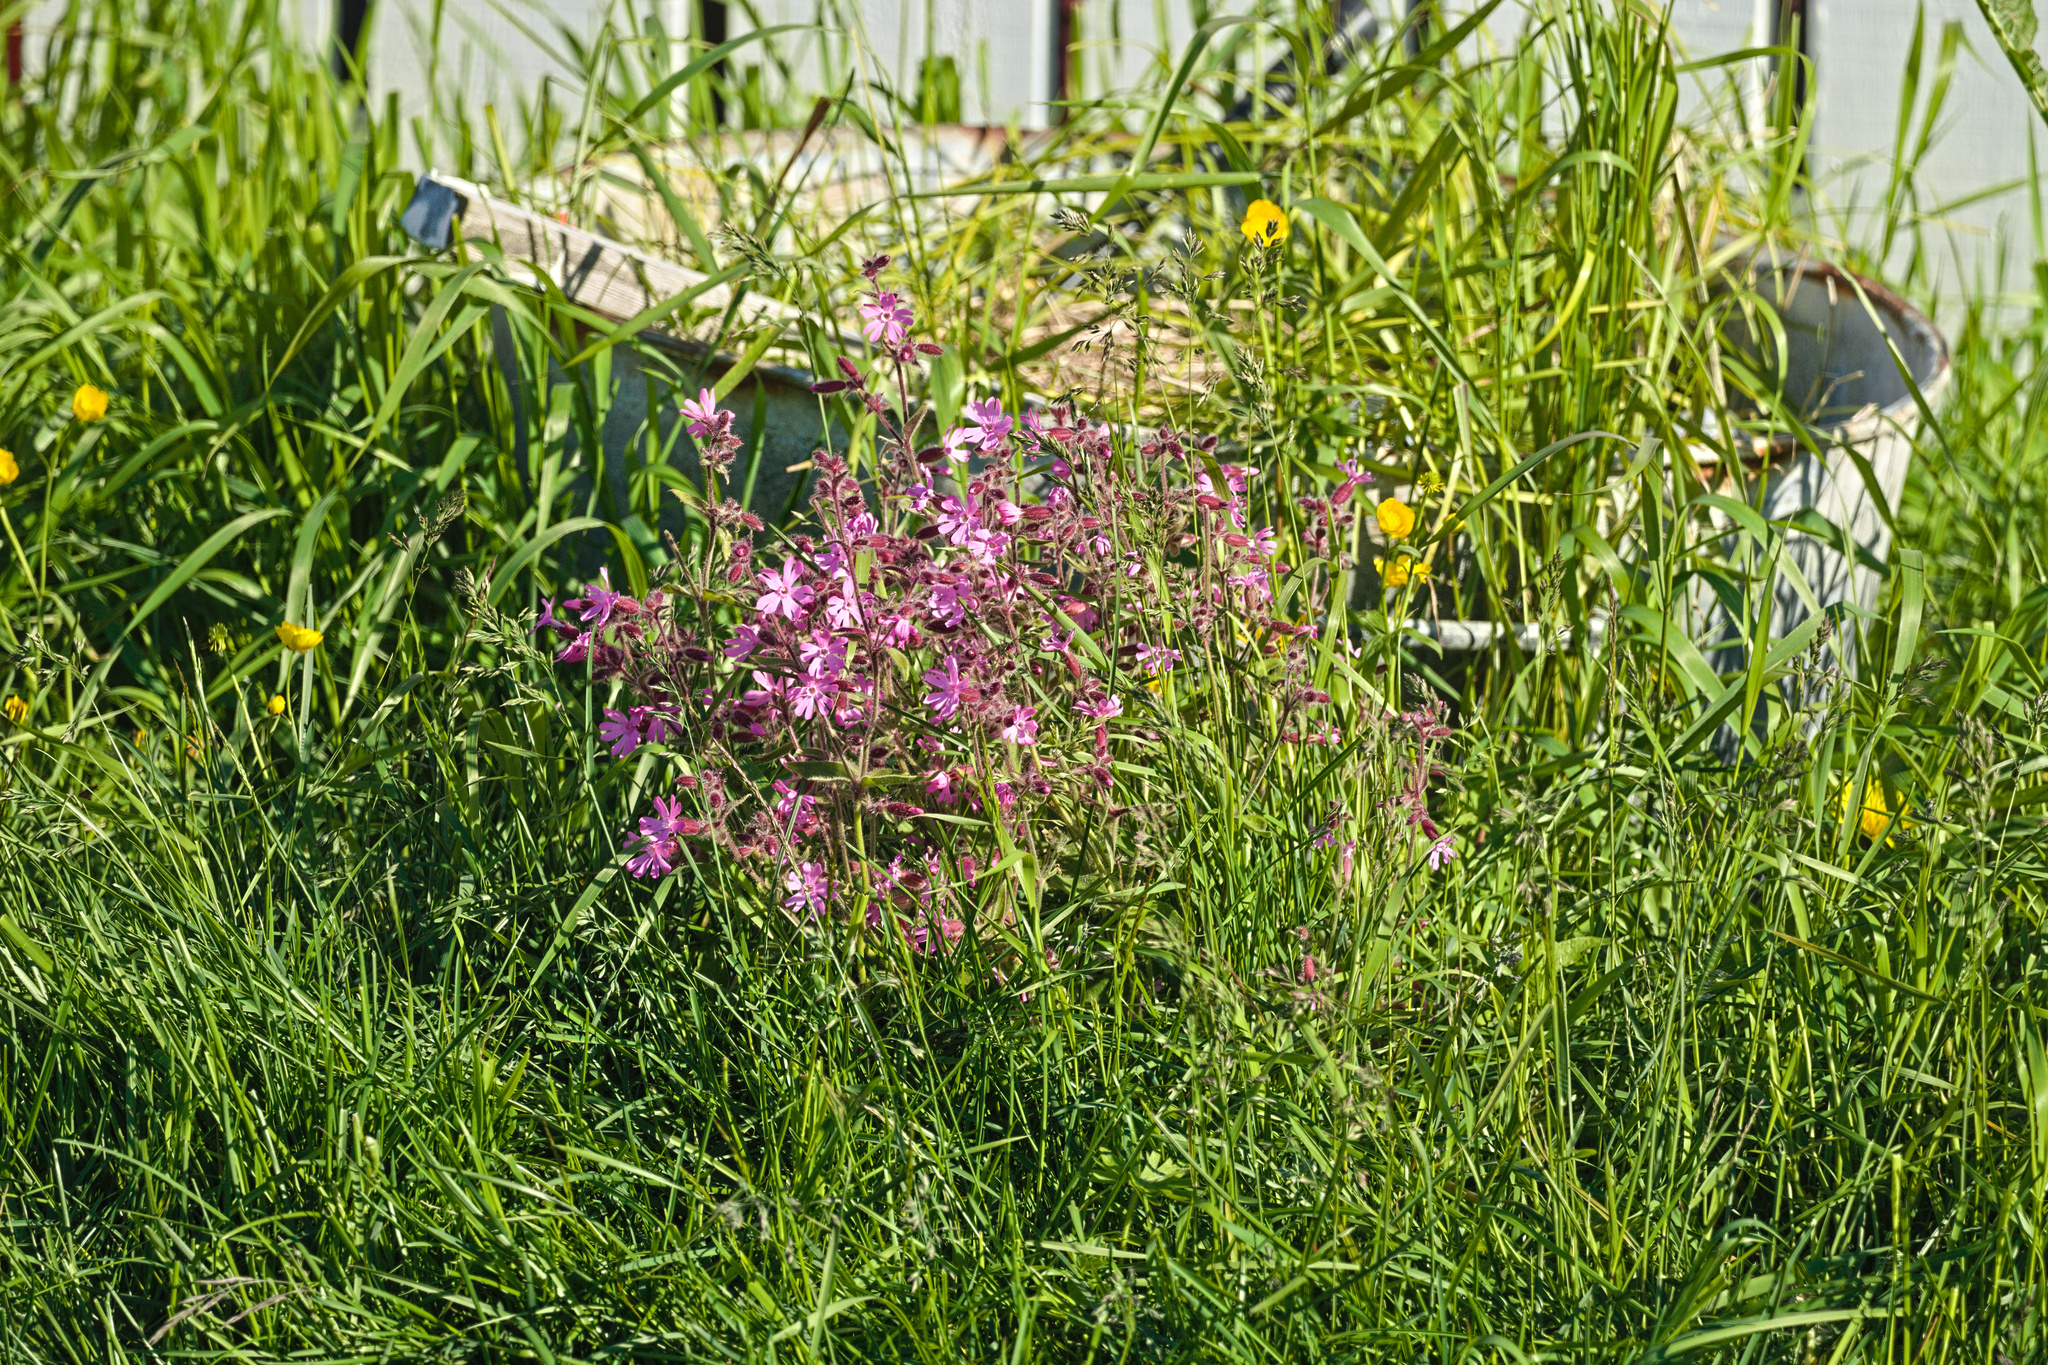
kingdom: Plantae
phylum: Tracheophyta
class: Magnoliopsida
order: Caryophyllales
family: Caryophyllaceae
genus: Silene
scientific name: Silene dioica
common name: Red campion
